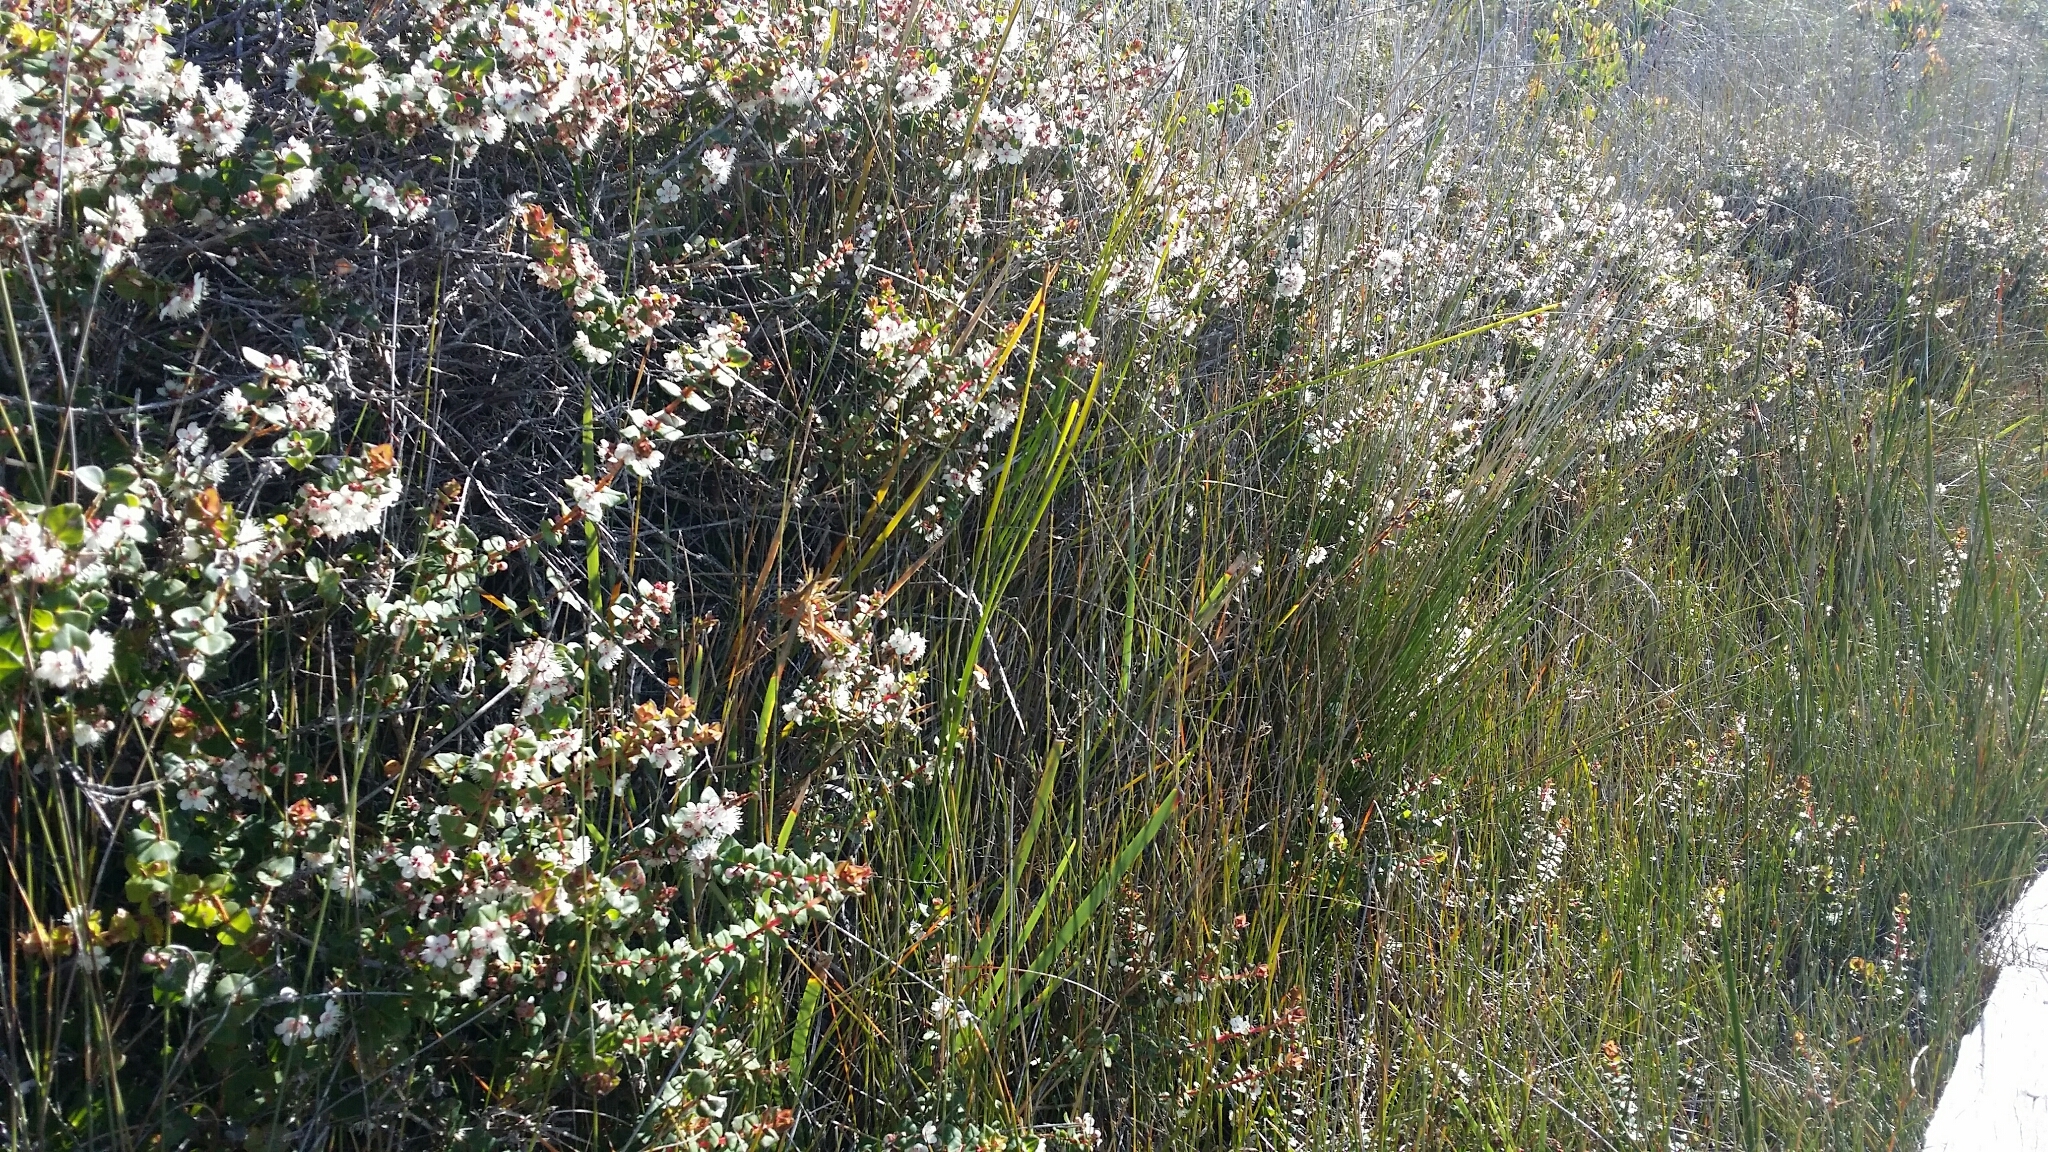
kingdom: Plantae
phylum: Tracheophyta
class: Magnoliopsida
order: Myrtales
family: Myrtaceae
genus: Hypocalymma
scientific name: Hypocalymma cordifolium
